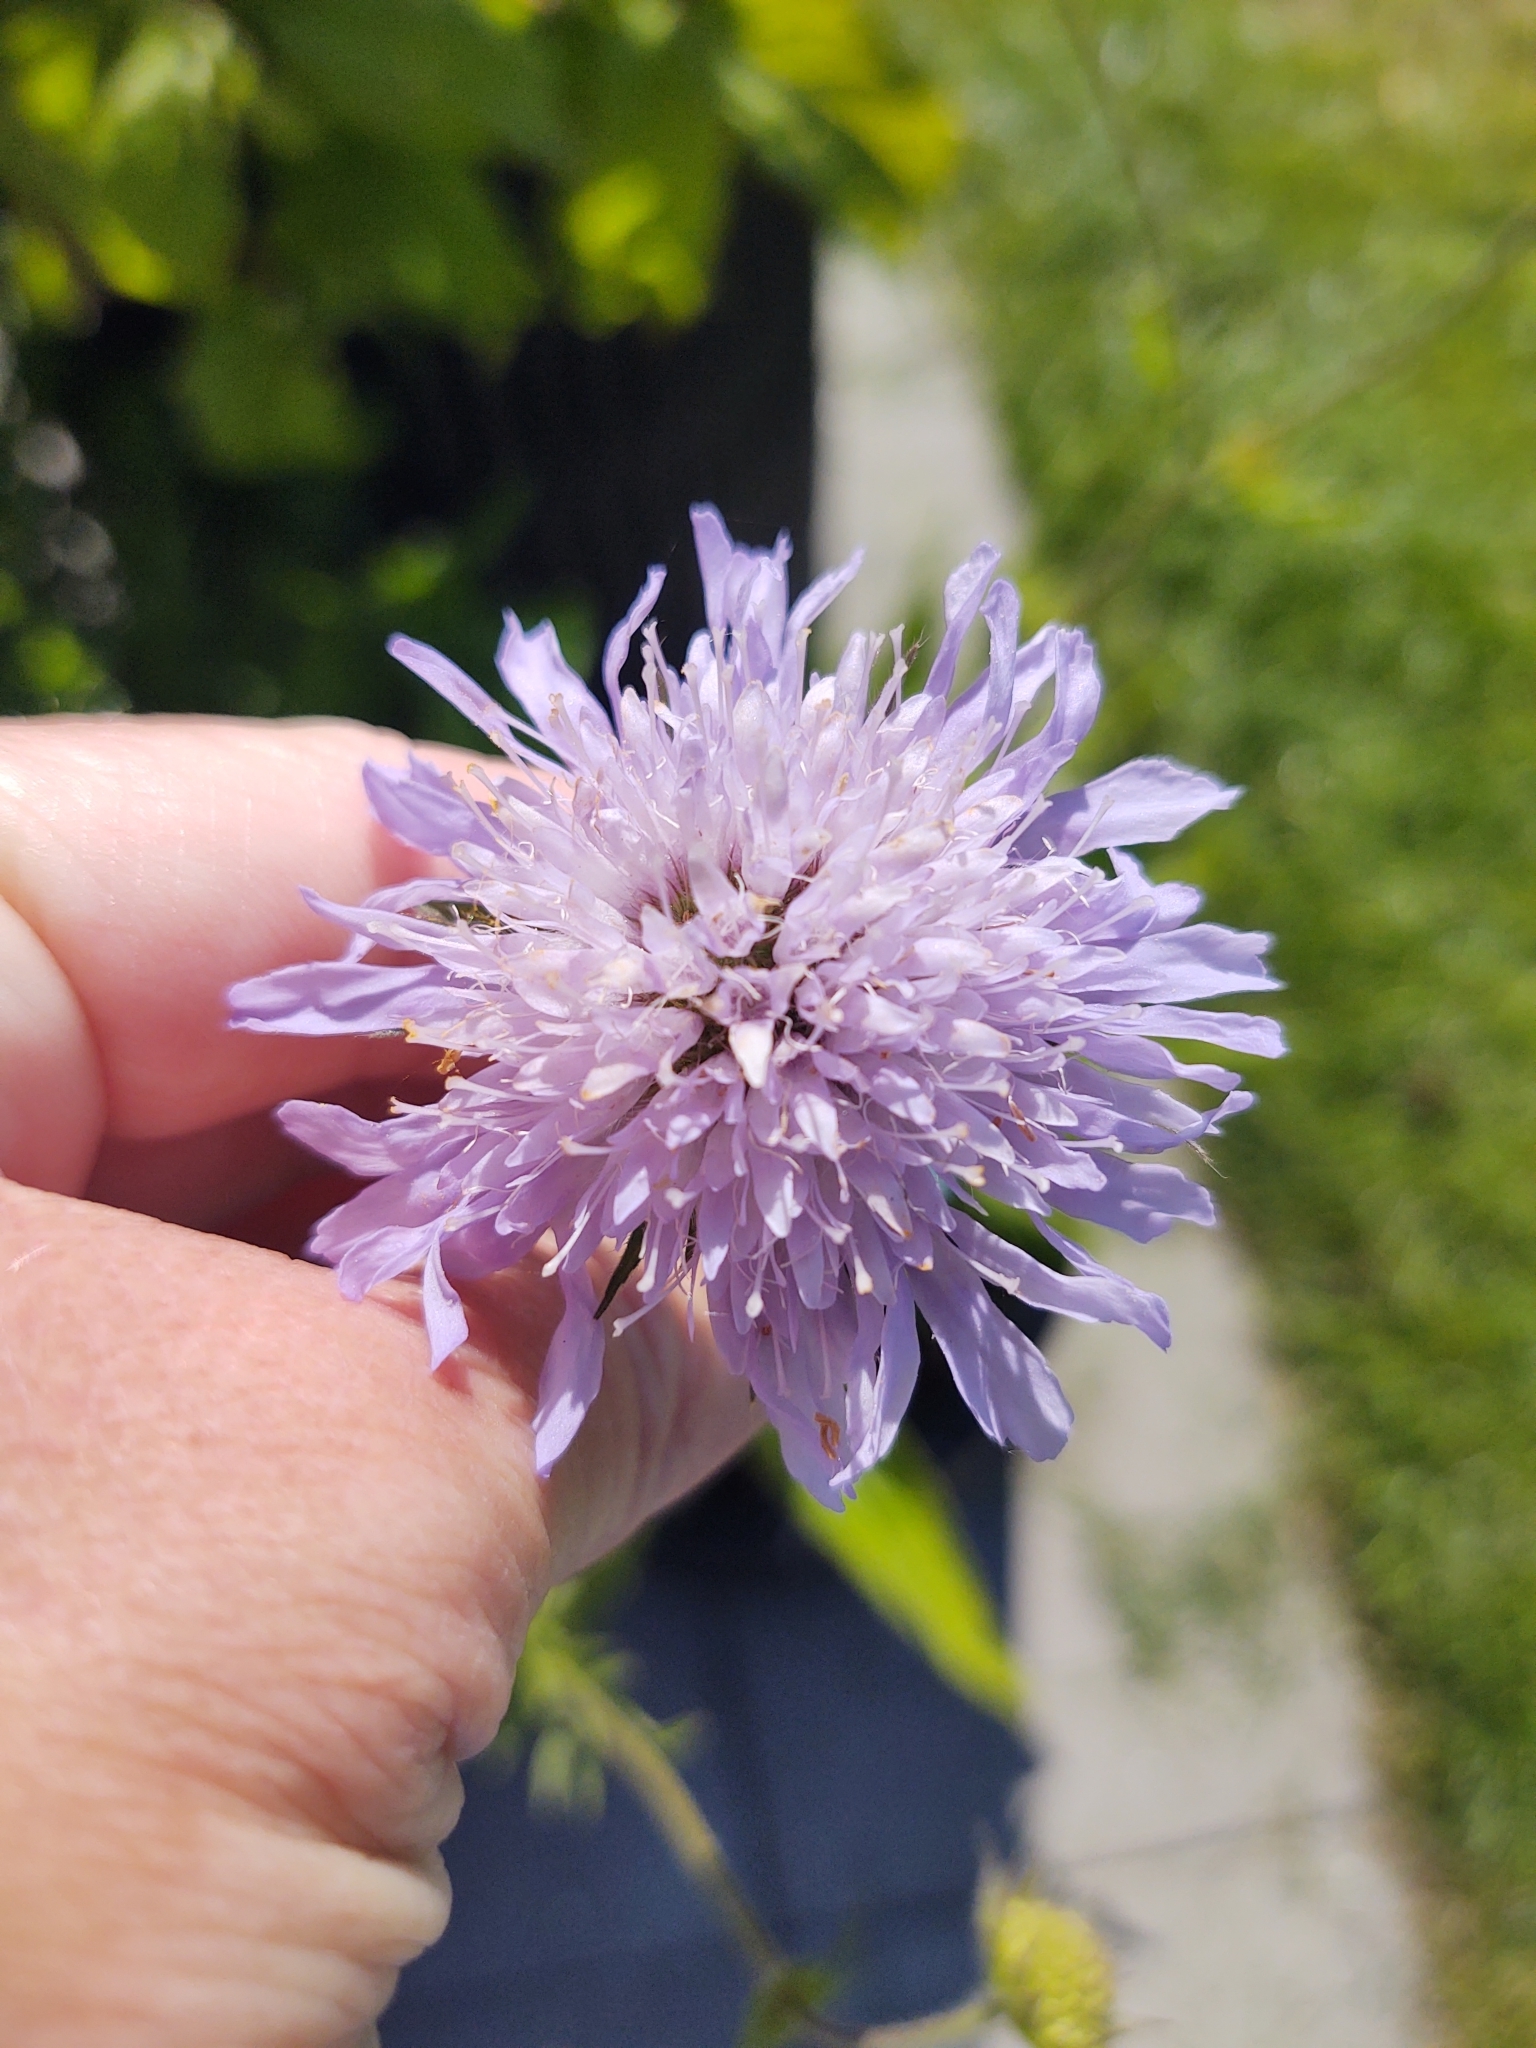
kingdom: Plantae
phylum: Tracheophyta
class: Magnoliopsida
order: Dipsacales
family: Caprifoliaceae
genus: Knautia
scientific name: Knautia arvensis
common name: Field scabiosa
